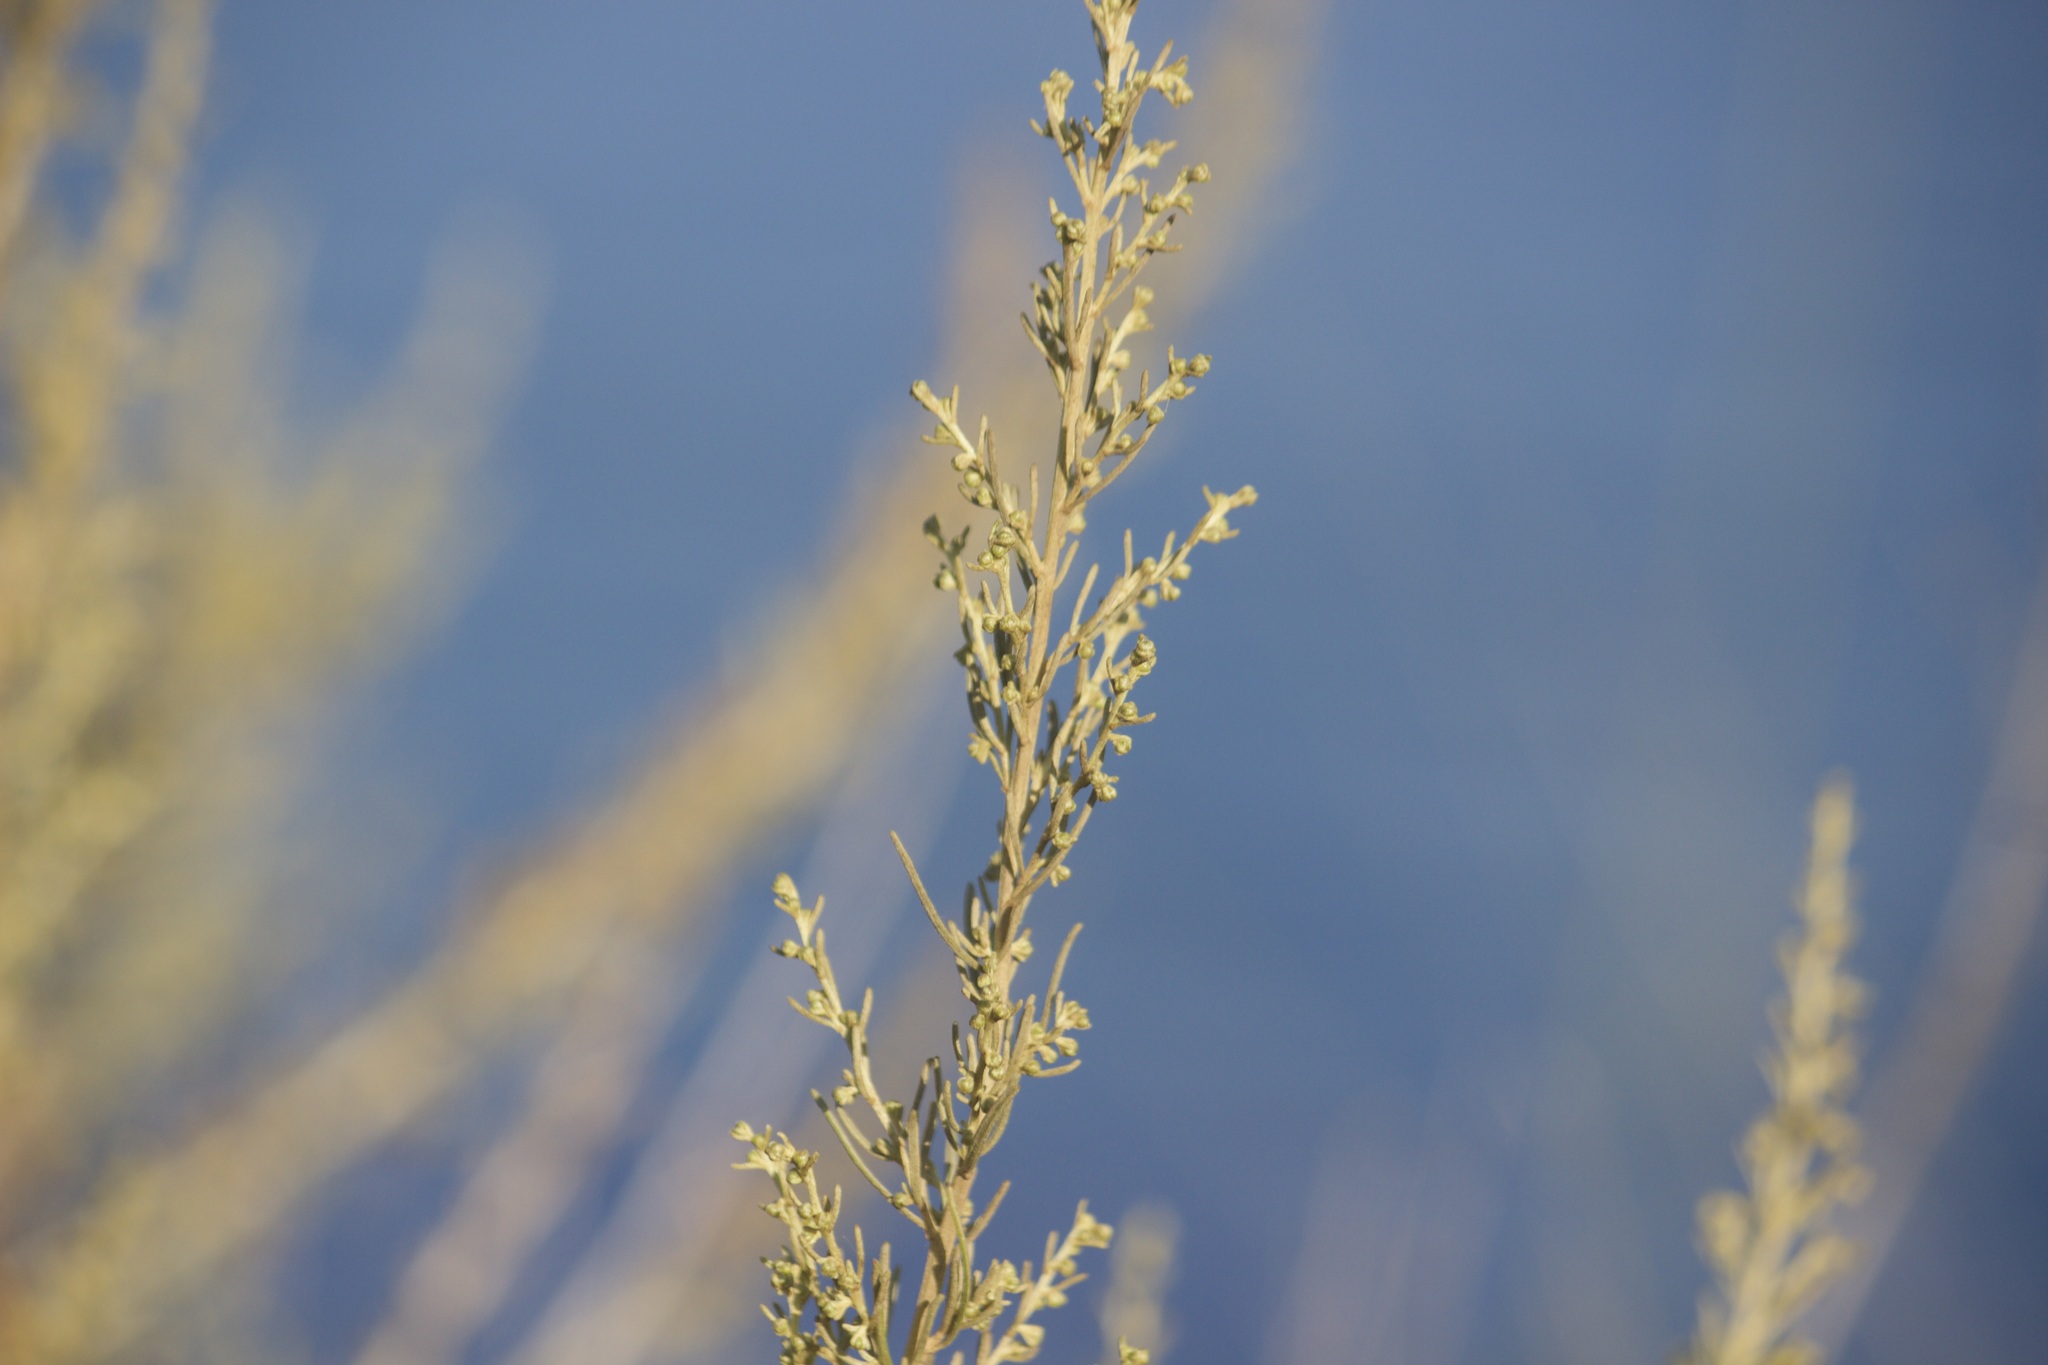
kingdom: Plantae
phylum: Tracheophyta
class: Magnoliopsida
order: Asterales
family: Asteraceae
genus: Artemisia
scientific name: Artemisia californica
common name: California sagebrush
